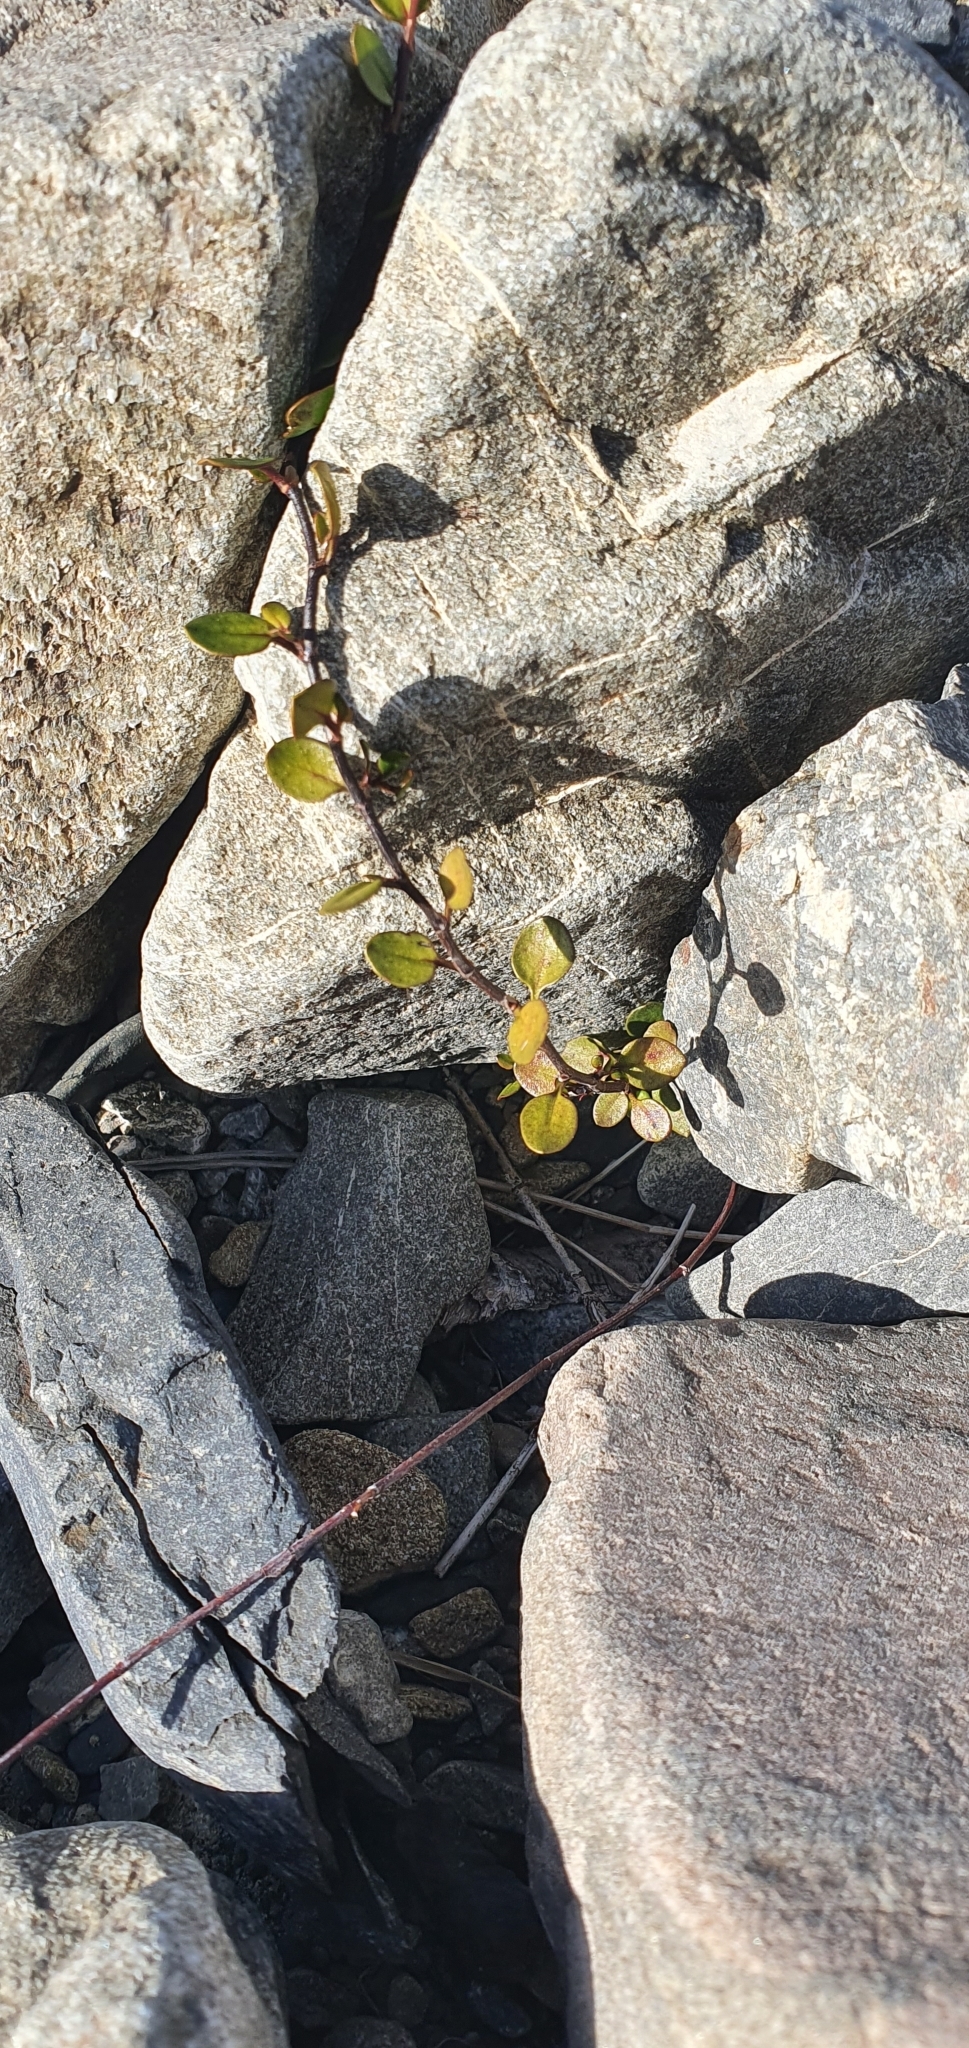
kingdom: Plantae
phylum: Tracheophyta
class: Magnoliopsida
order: Caryophyllales
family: Polygonaceae
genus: Muehlenbeckia
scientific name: Muehlenbeckia axillaris
